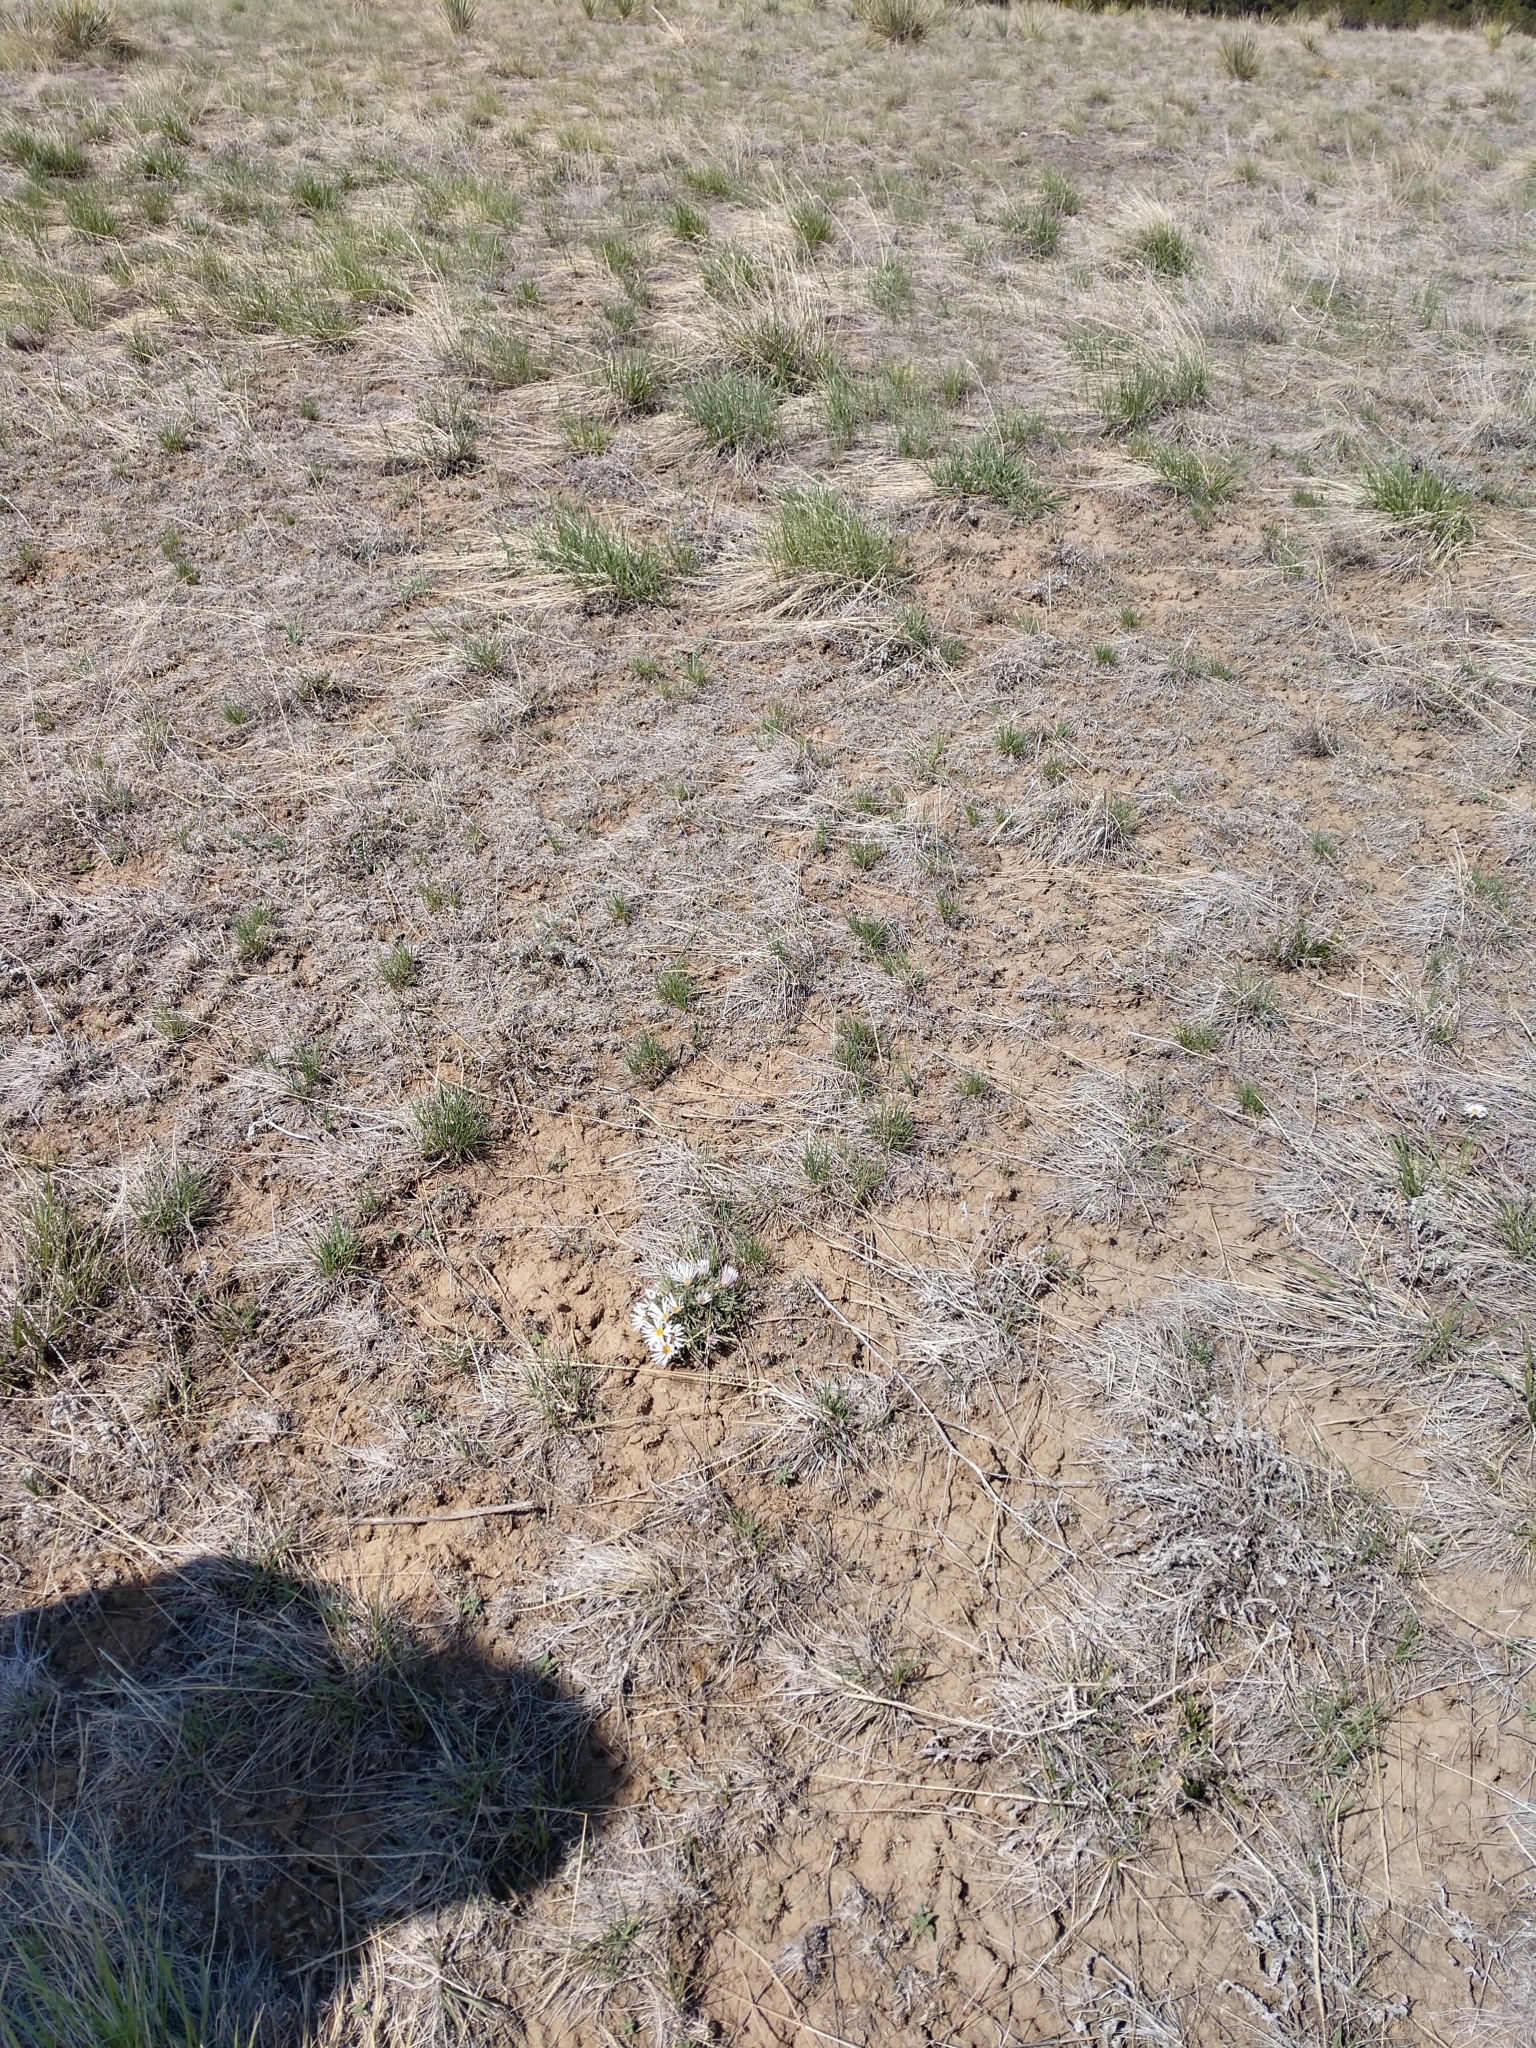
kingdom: Plantae
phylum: Tracheophyta
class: Magnoliopsida
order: Asterales
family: Asteraceae
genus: Townsendia
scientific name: Townsendia exscapa
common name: Dwarf townsendia
